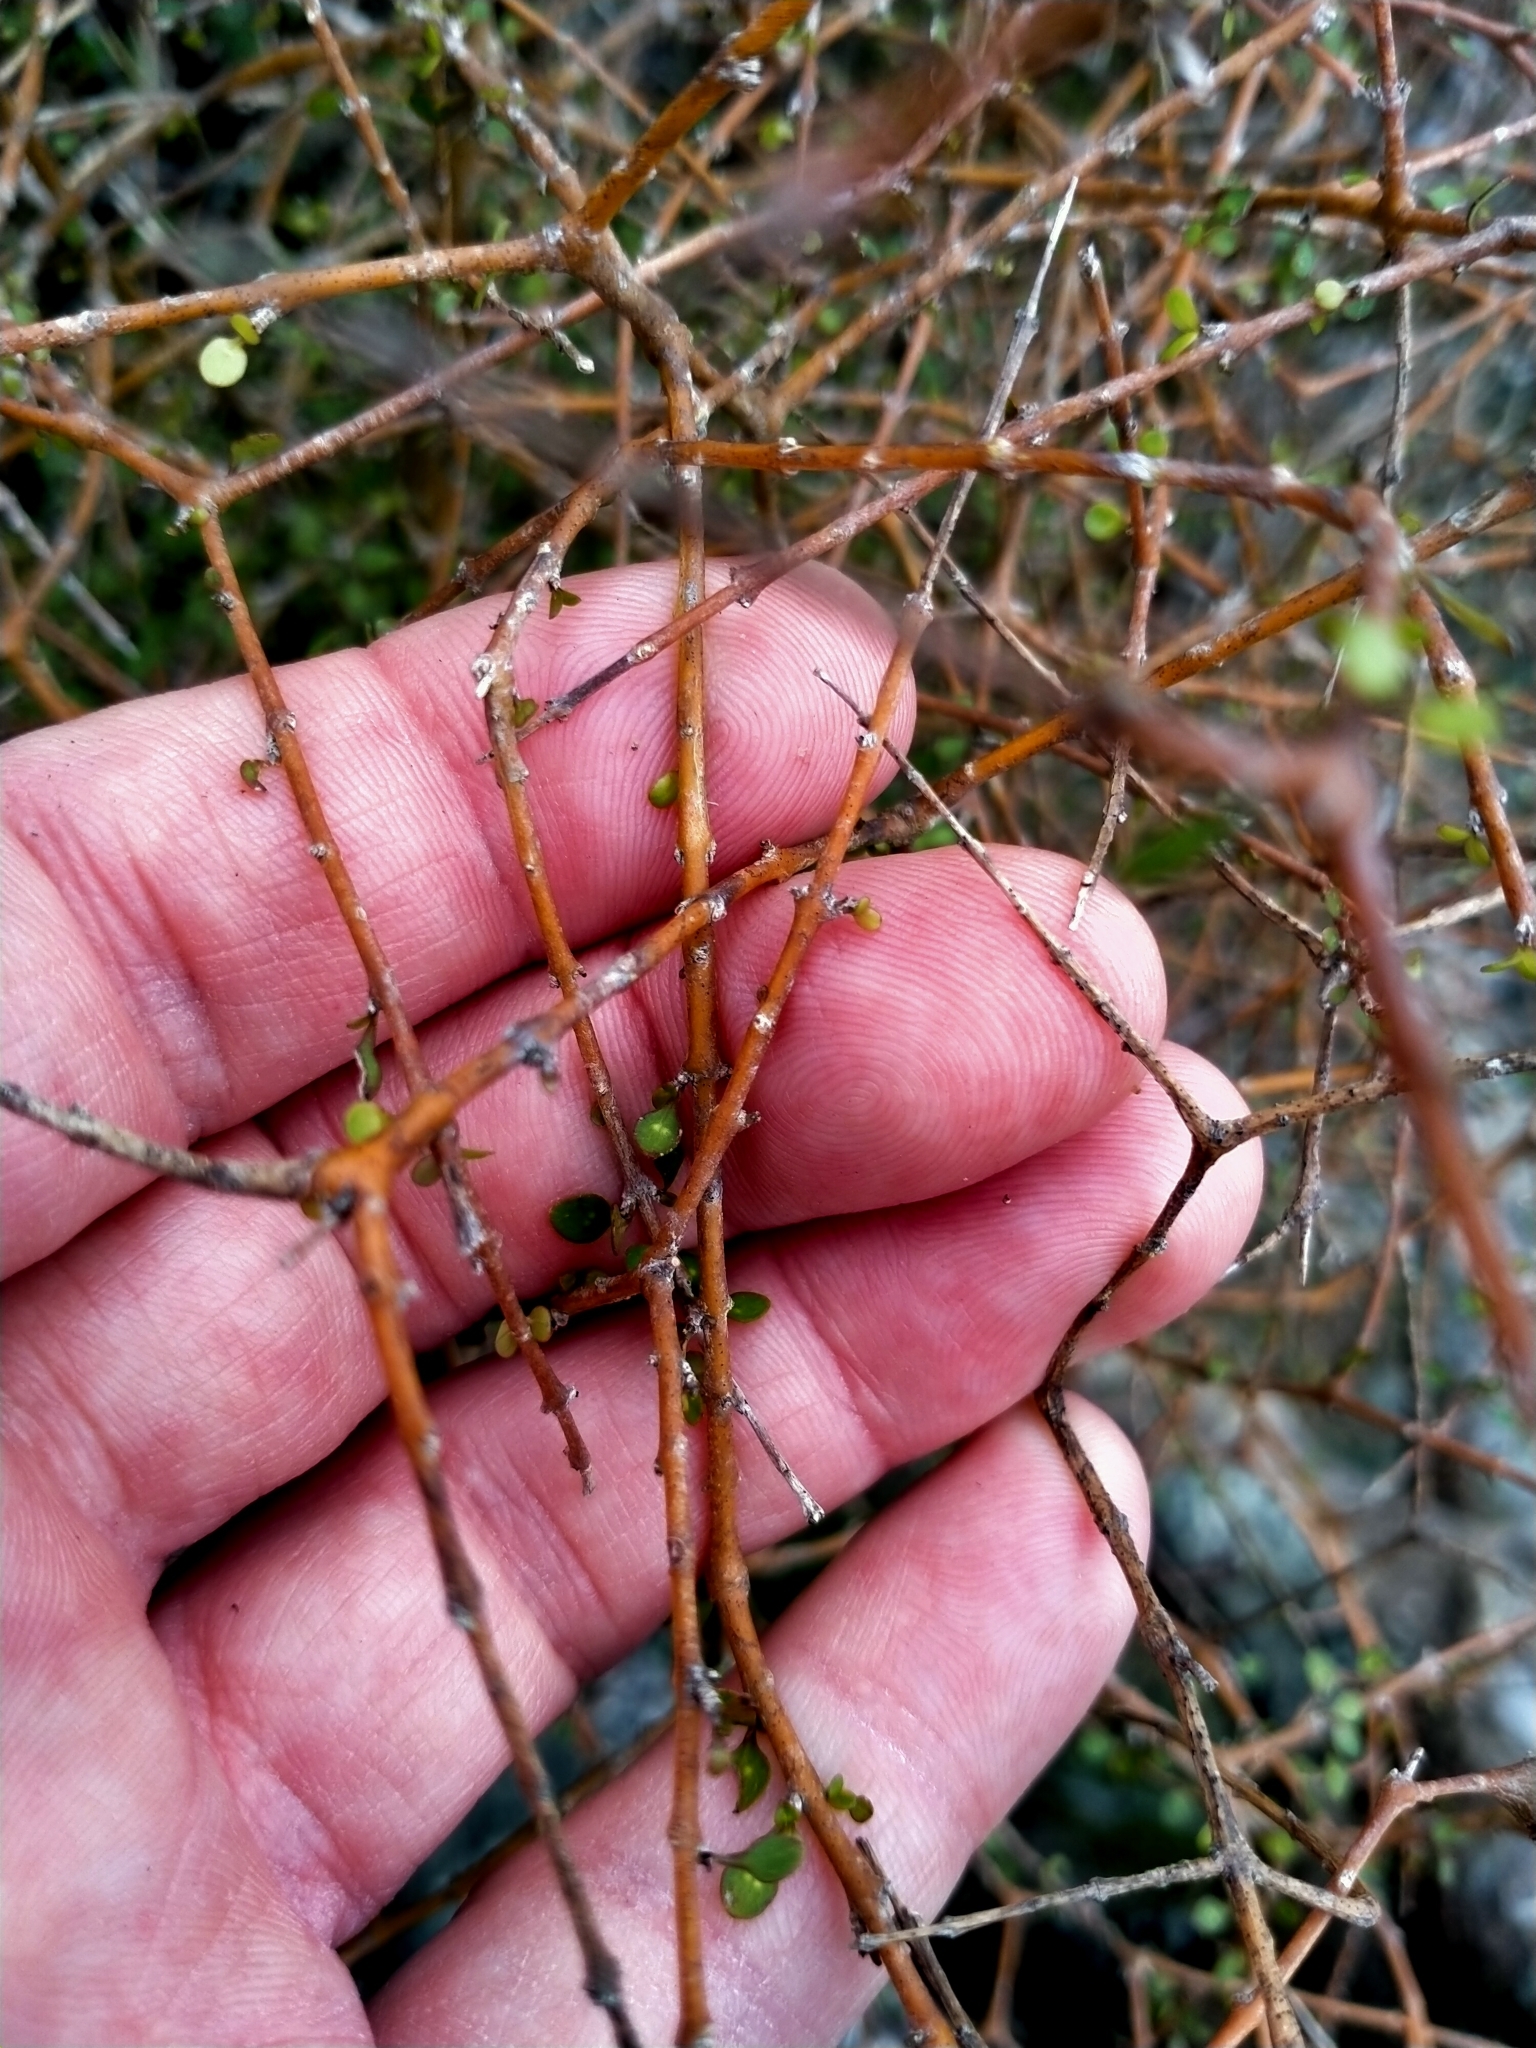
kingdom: Plantae
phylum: Tracheophyta
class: Magnoliopsida
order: Gentianales
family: Rubiaceae
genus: Coprosma
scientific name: Coprosma virescens
